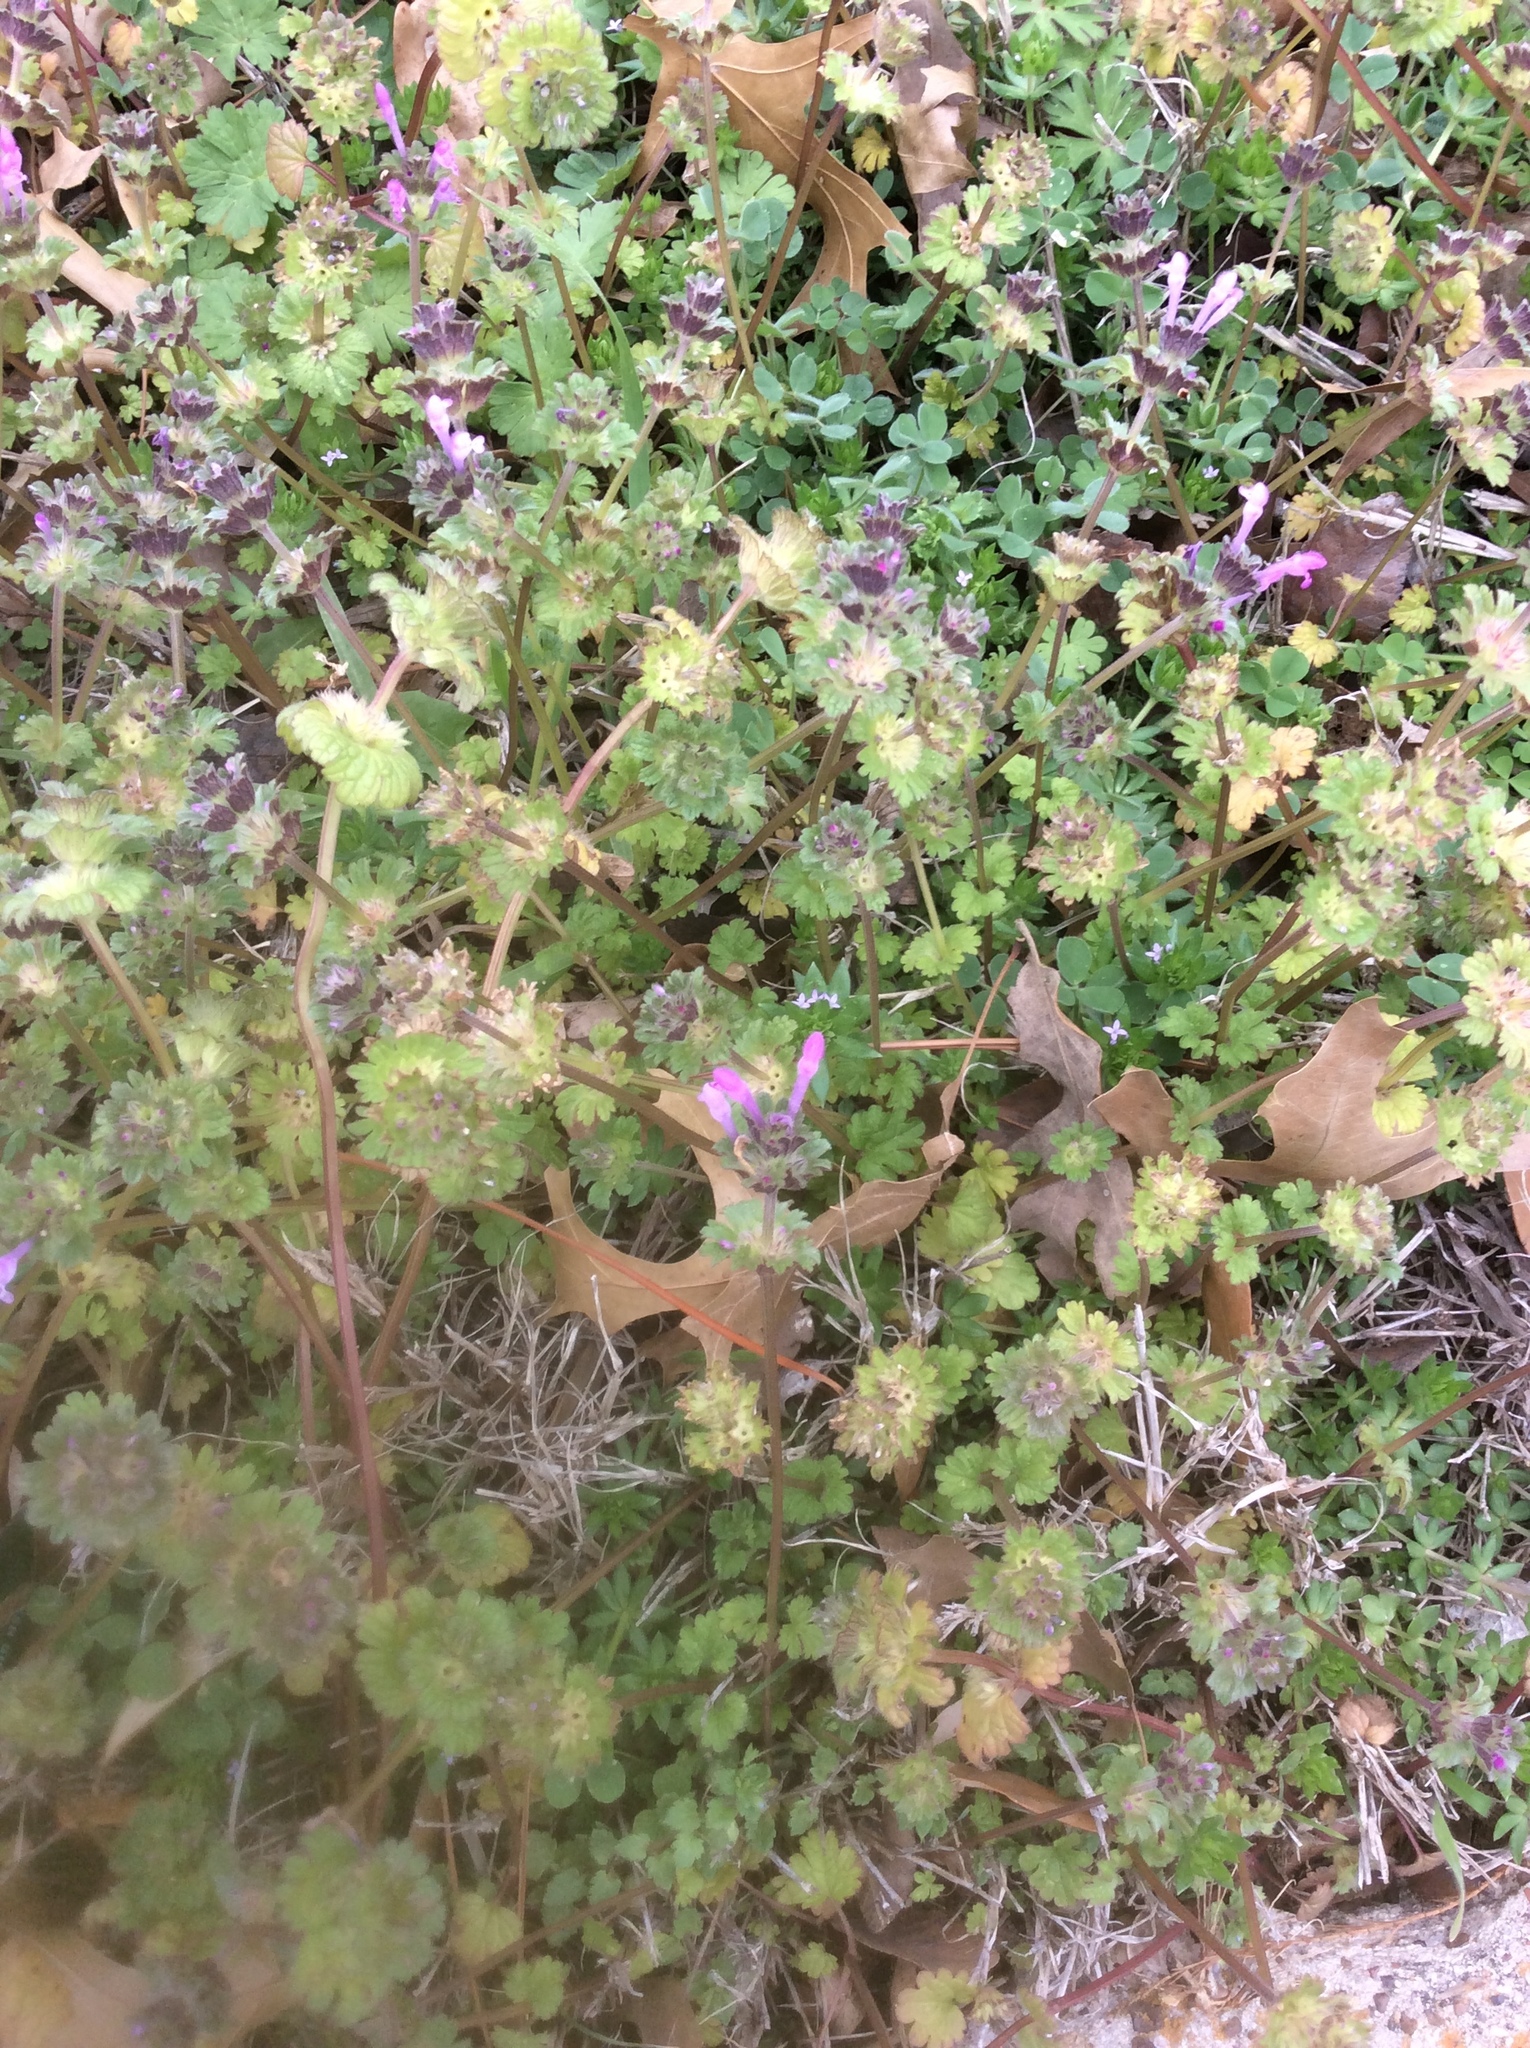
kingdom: Plantae
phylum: Tracheophyta
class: Magnoliopsida
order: Lamiales
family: Lamiaceae
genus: Lamium
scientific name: Lamium amplexicaule
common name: Henbit dead-nettle
